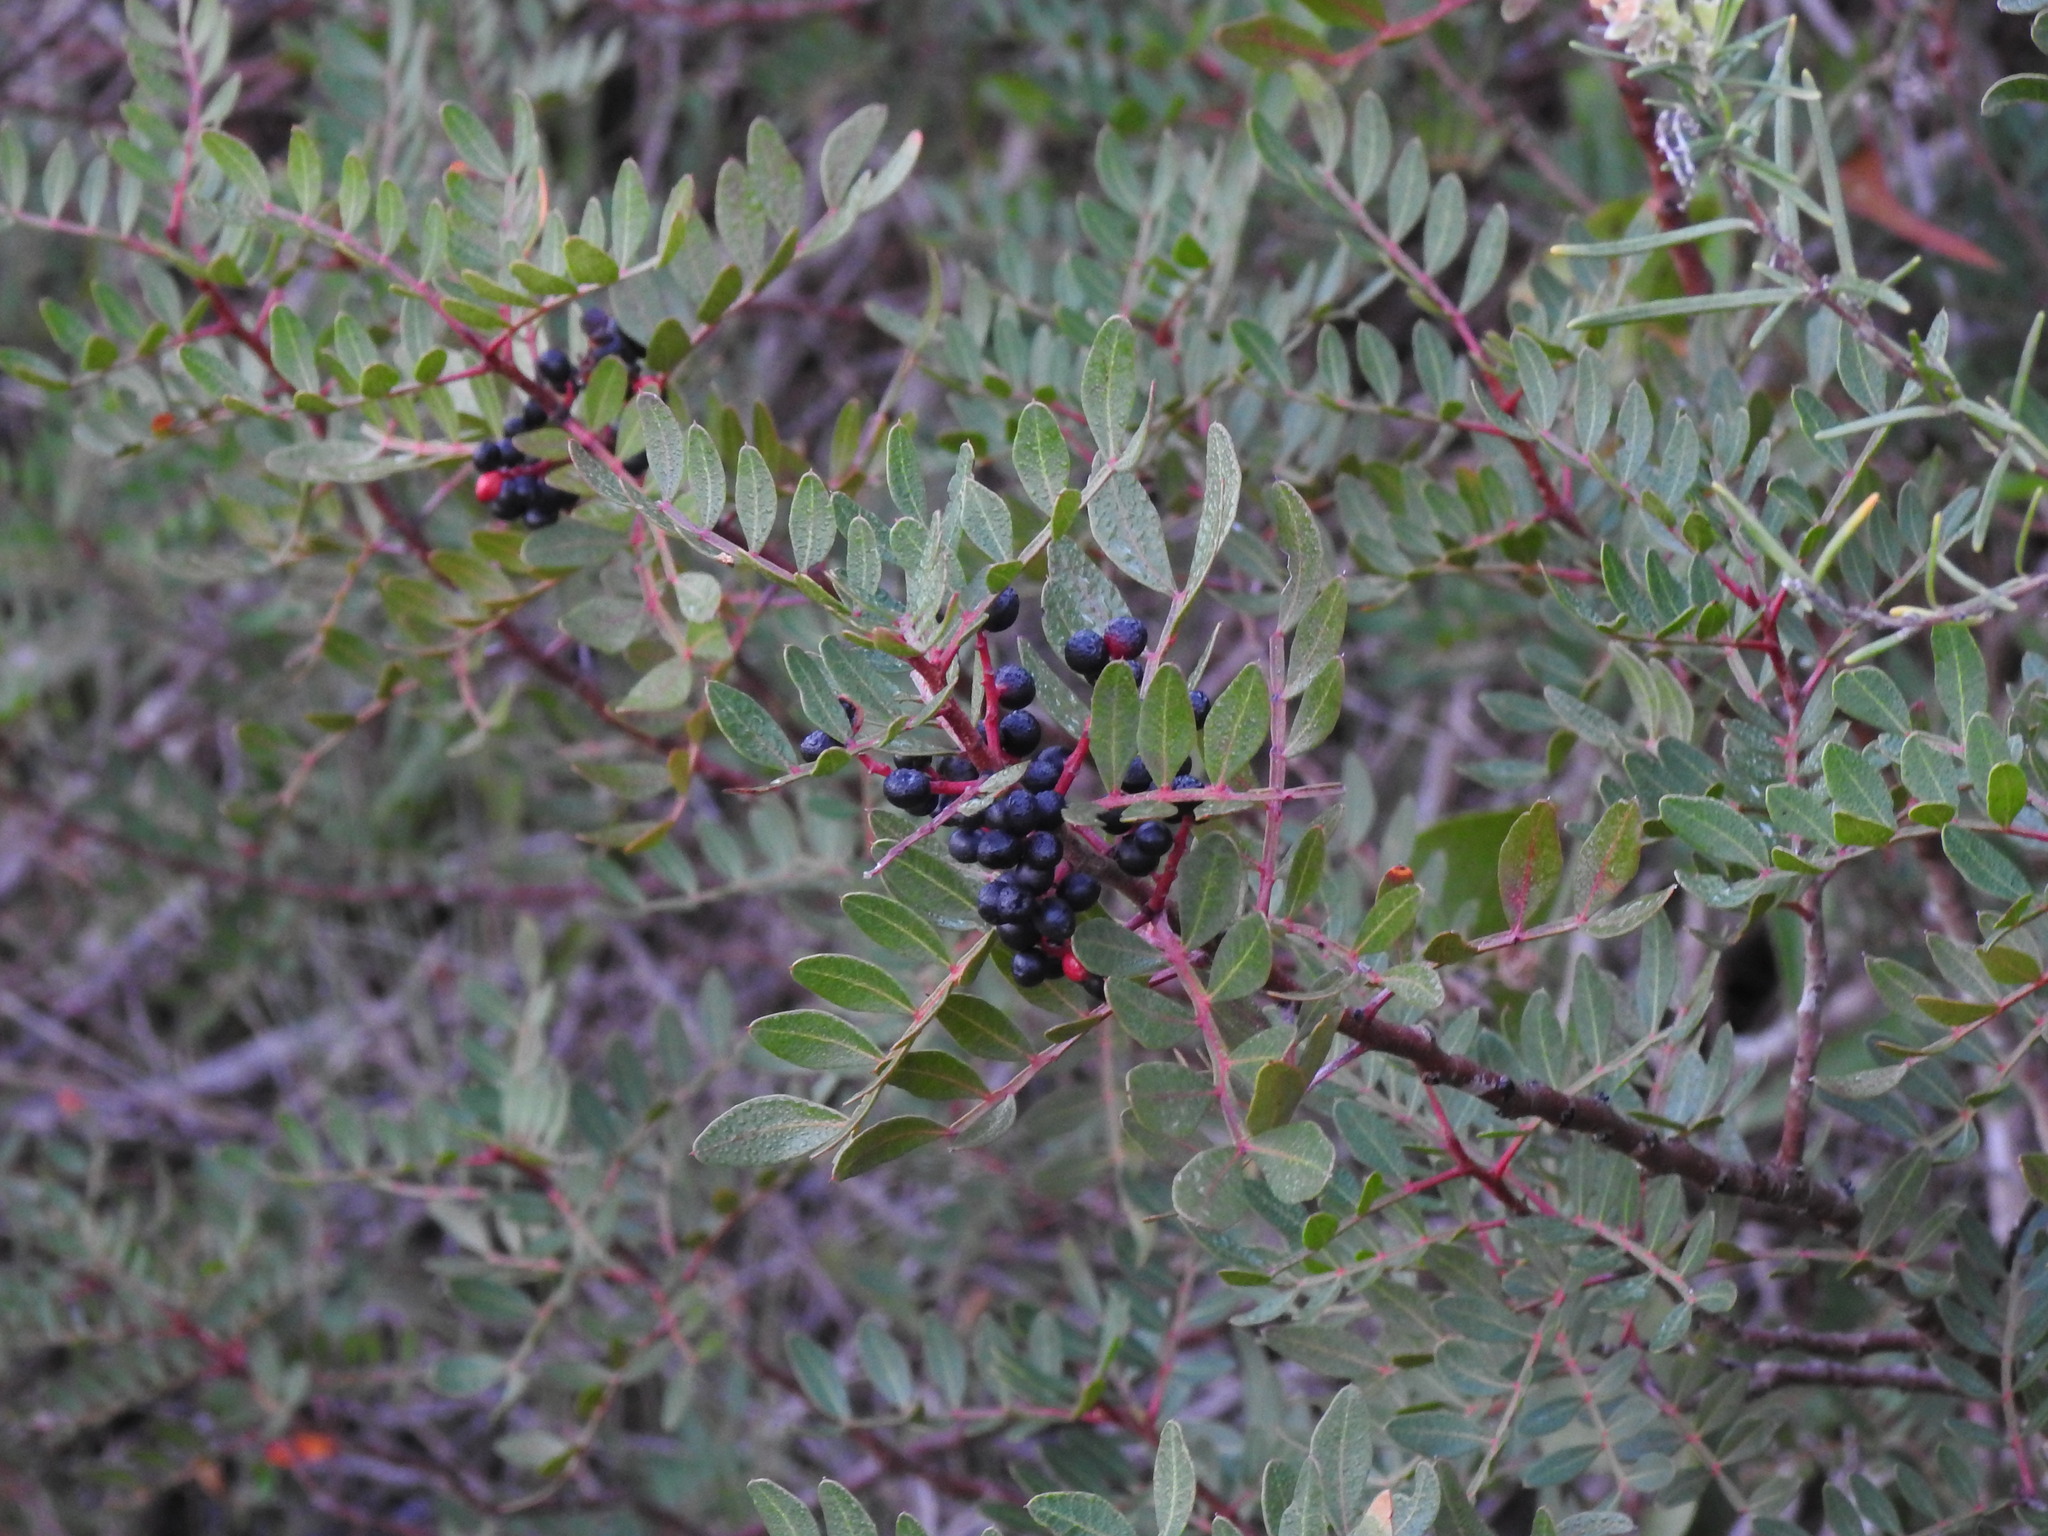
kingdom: Plantae
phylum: Tracheophyta
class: Magnoliopsida
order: Sapindales
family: Anacardiaceae
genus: Pistacia
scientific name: Pistacia lentiscus
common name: Lentisk
